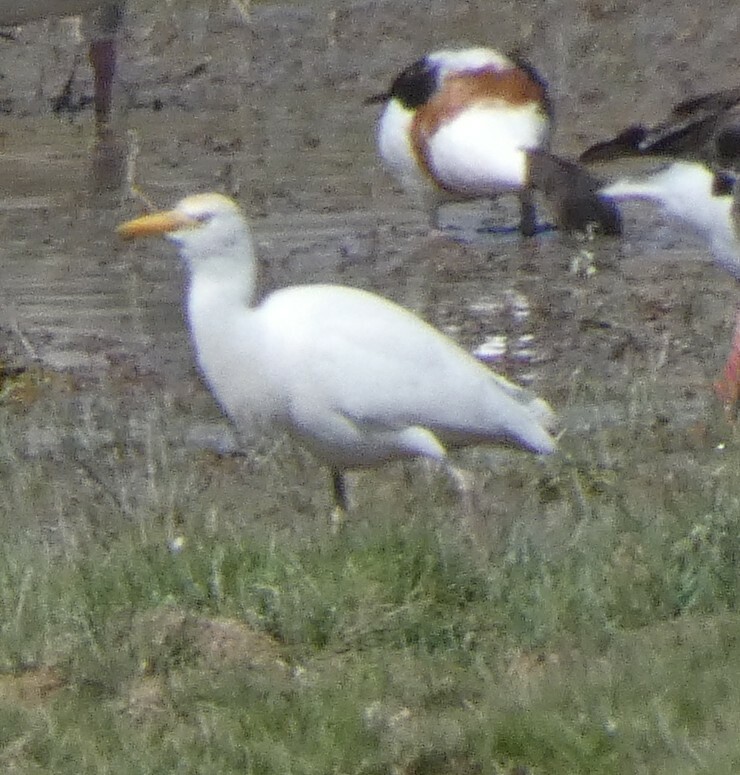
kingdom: Animalia
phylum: Chordata
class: Aves
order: Pelecaniformes
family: Ardeidae
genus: Bubulcus
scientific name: Bubulcus ibis
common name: Cattle egret
